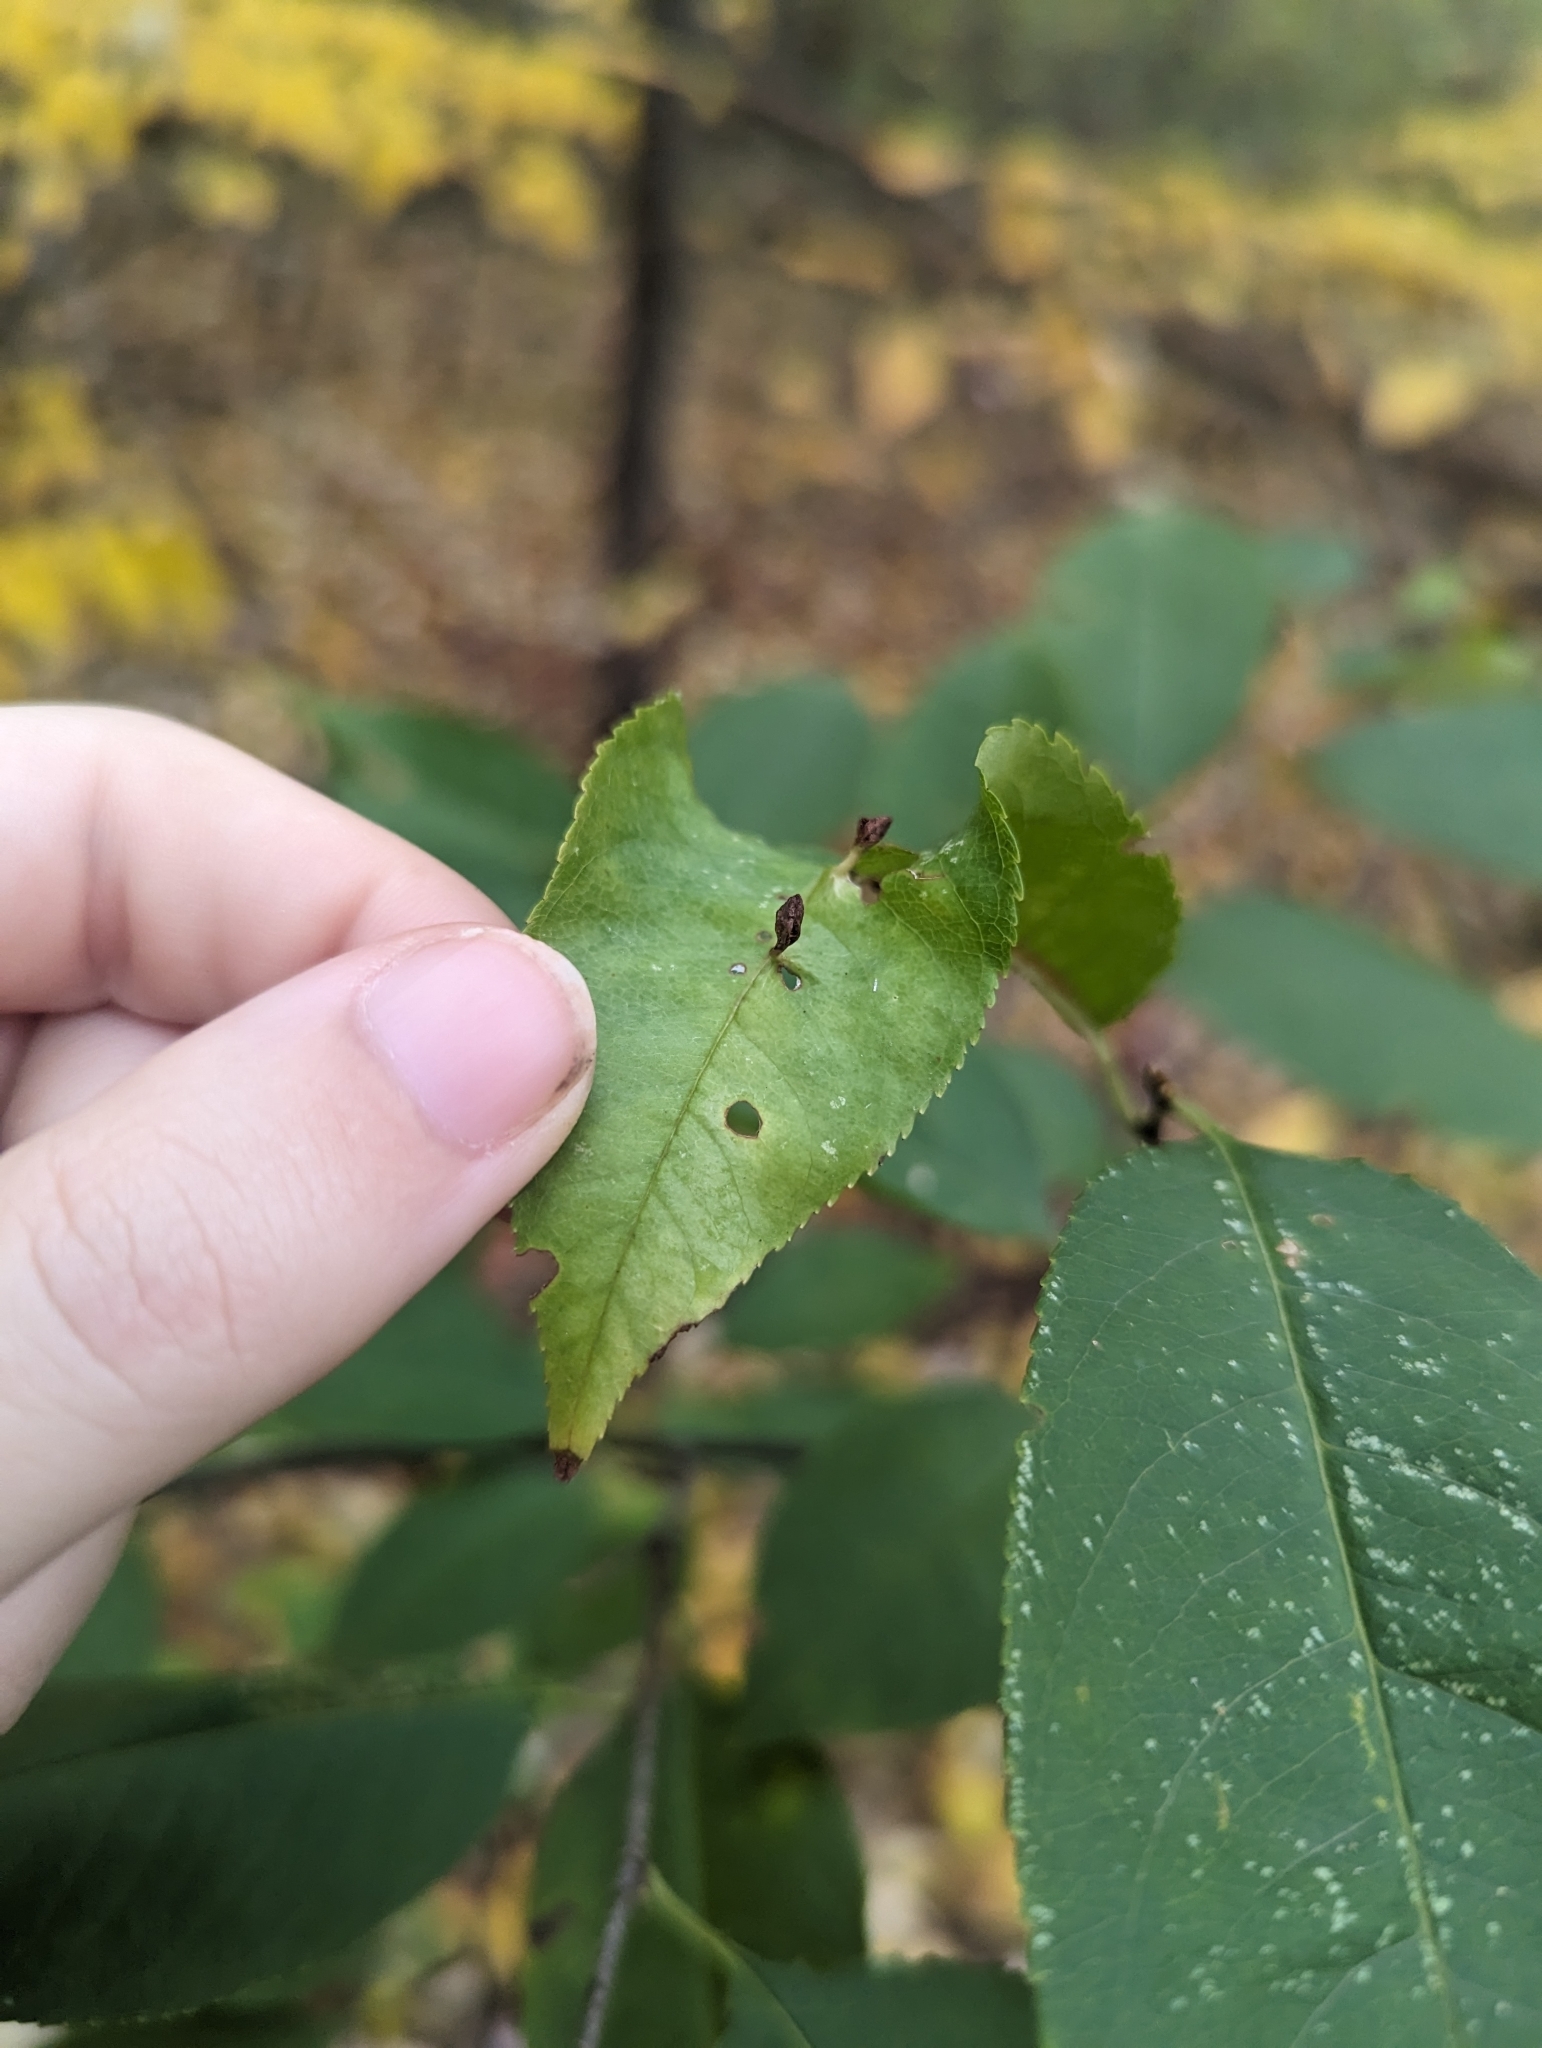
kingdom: Plantae
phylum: Tracheophyta
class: Magnoliopsida
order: Rosales
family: Rosaceae
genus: Prunus
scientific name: Prunus serotina
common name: Black cherry
